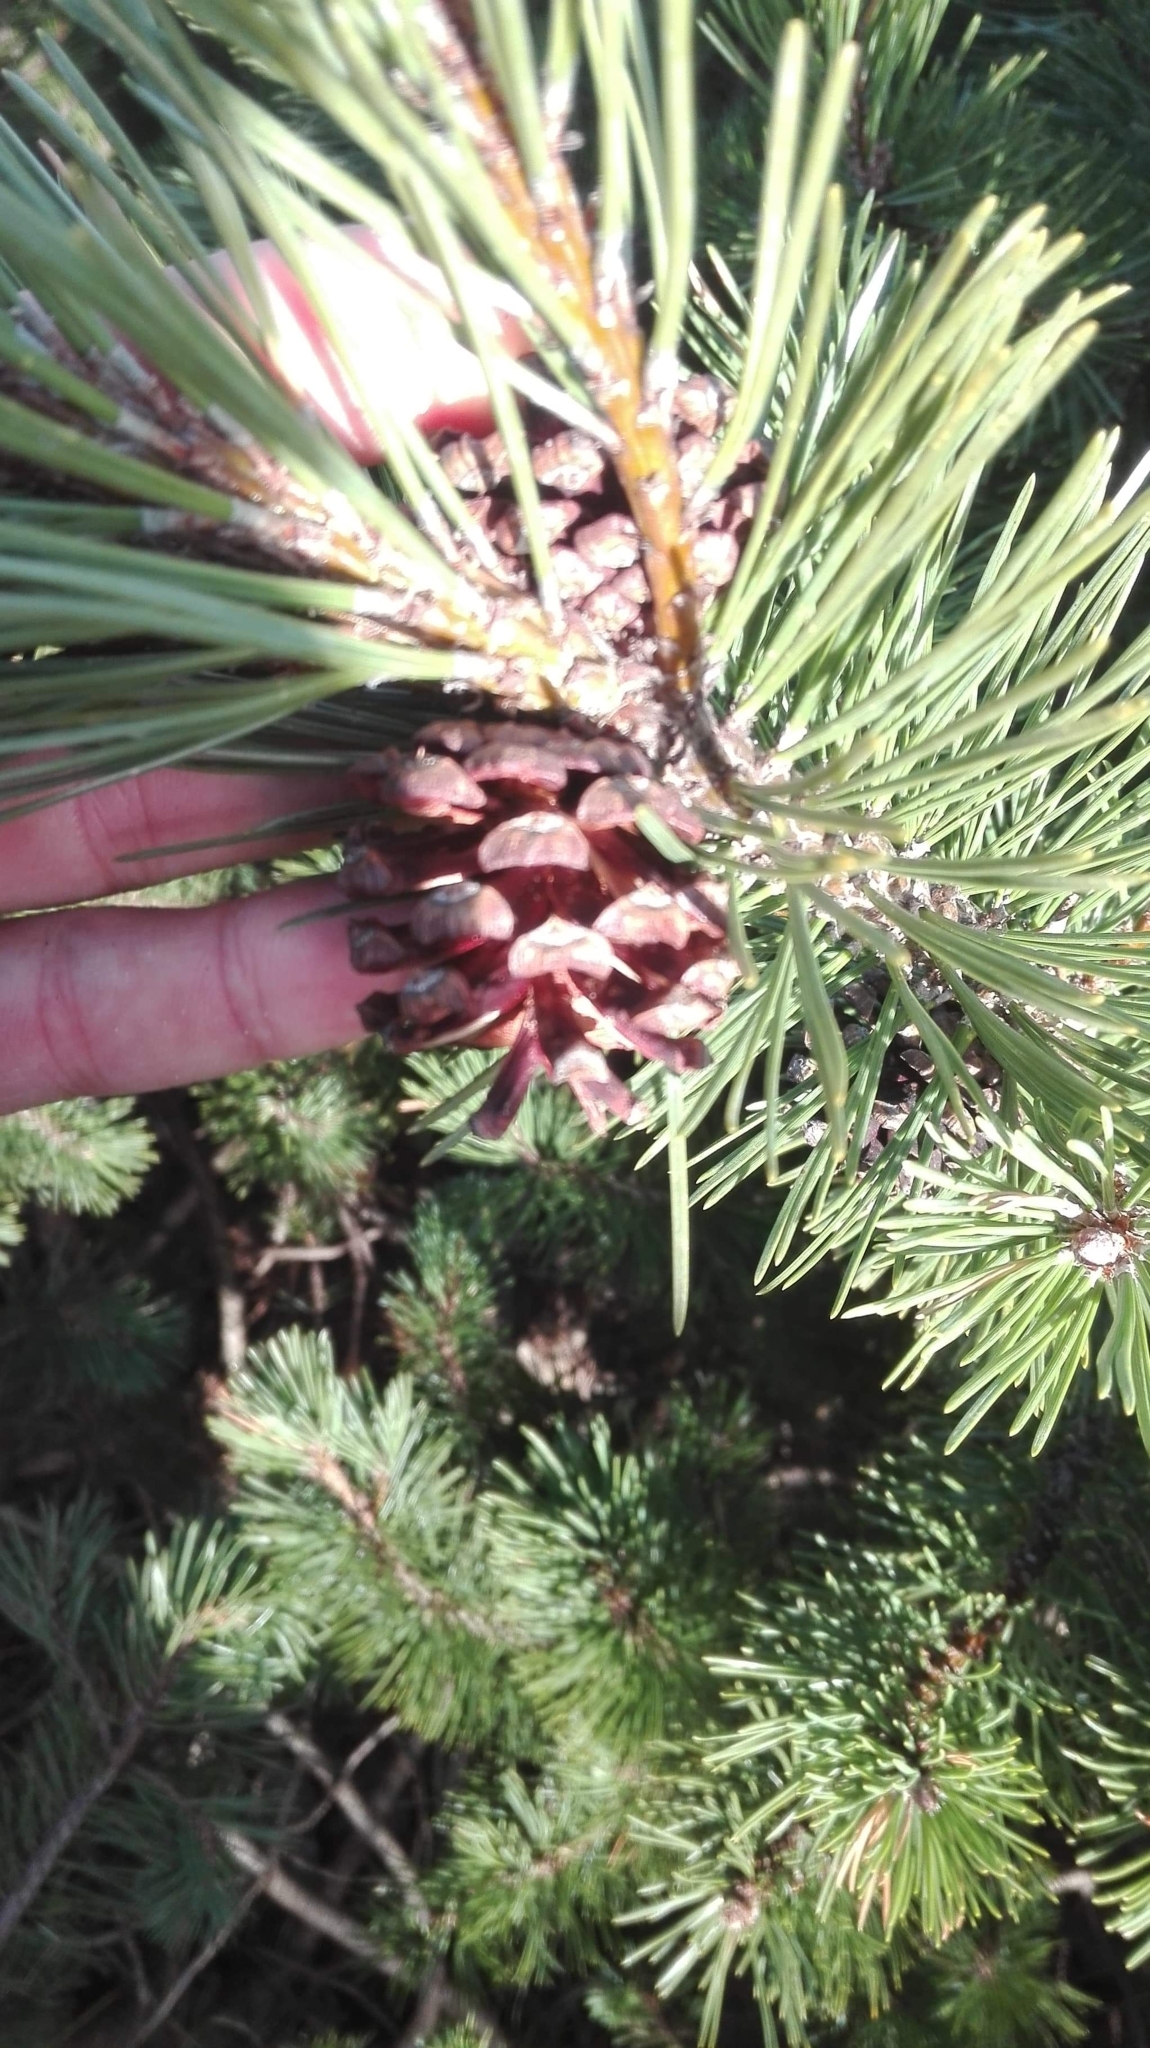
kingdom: Plantae
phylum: Tracheophyta
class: Pinopsida
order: Pinales
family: Pinaceae
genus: Pinus
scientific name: Pinus mugo
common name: Mugo pine
